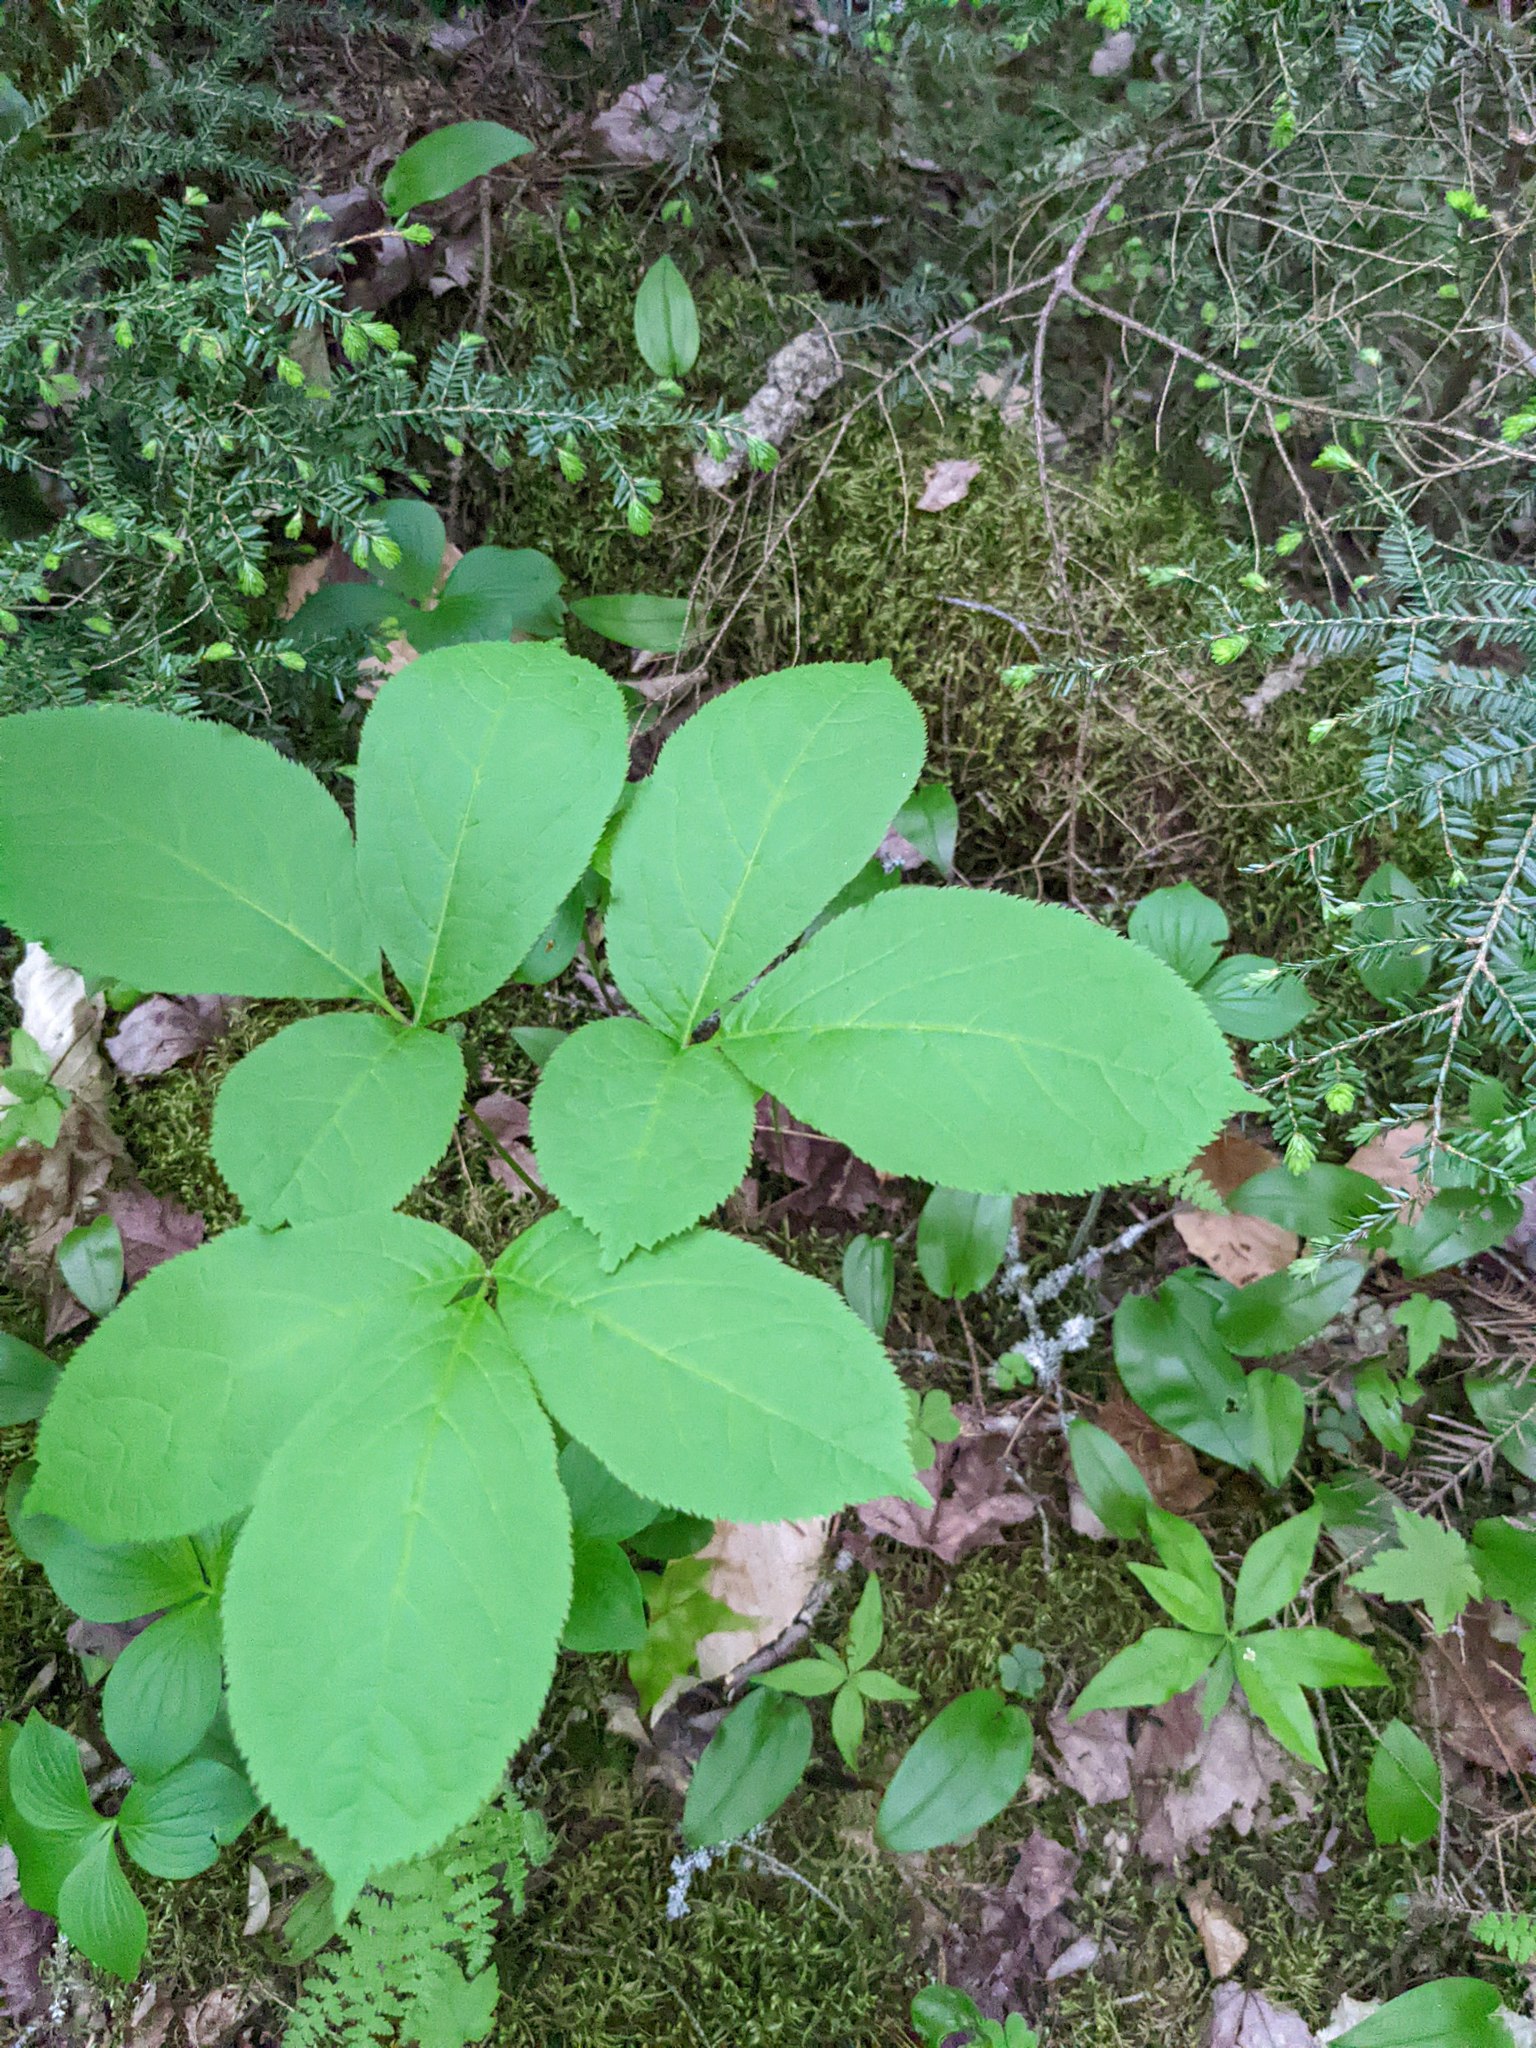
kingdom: Plantae
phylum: Tracheophyta
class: Magnoliopsida
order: Apiales
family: Araliaceae
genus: Aralia
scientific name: Aralia nudicaulis
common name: Wild sarsaparilla
